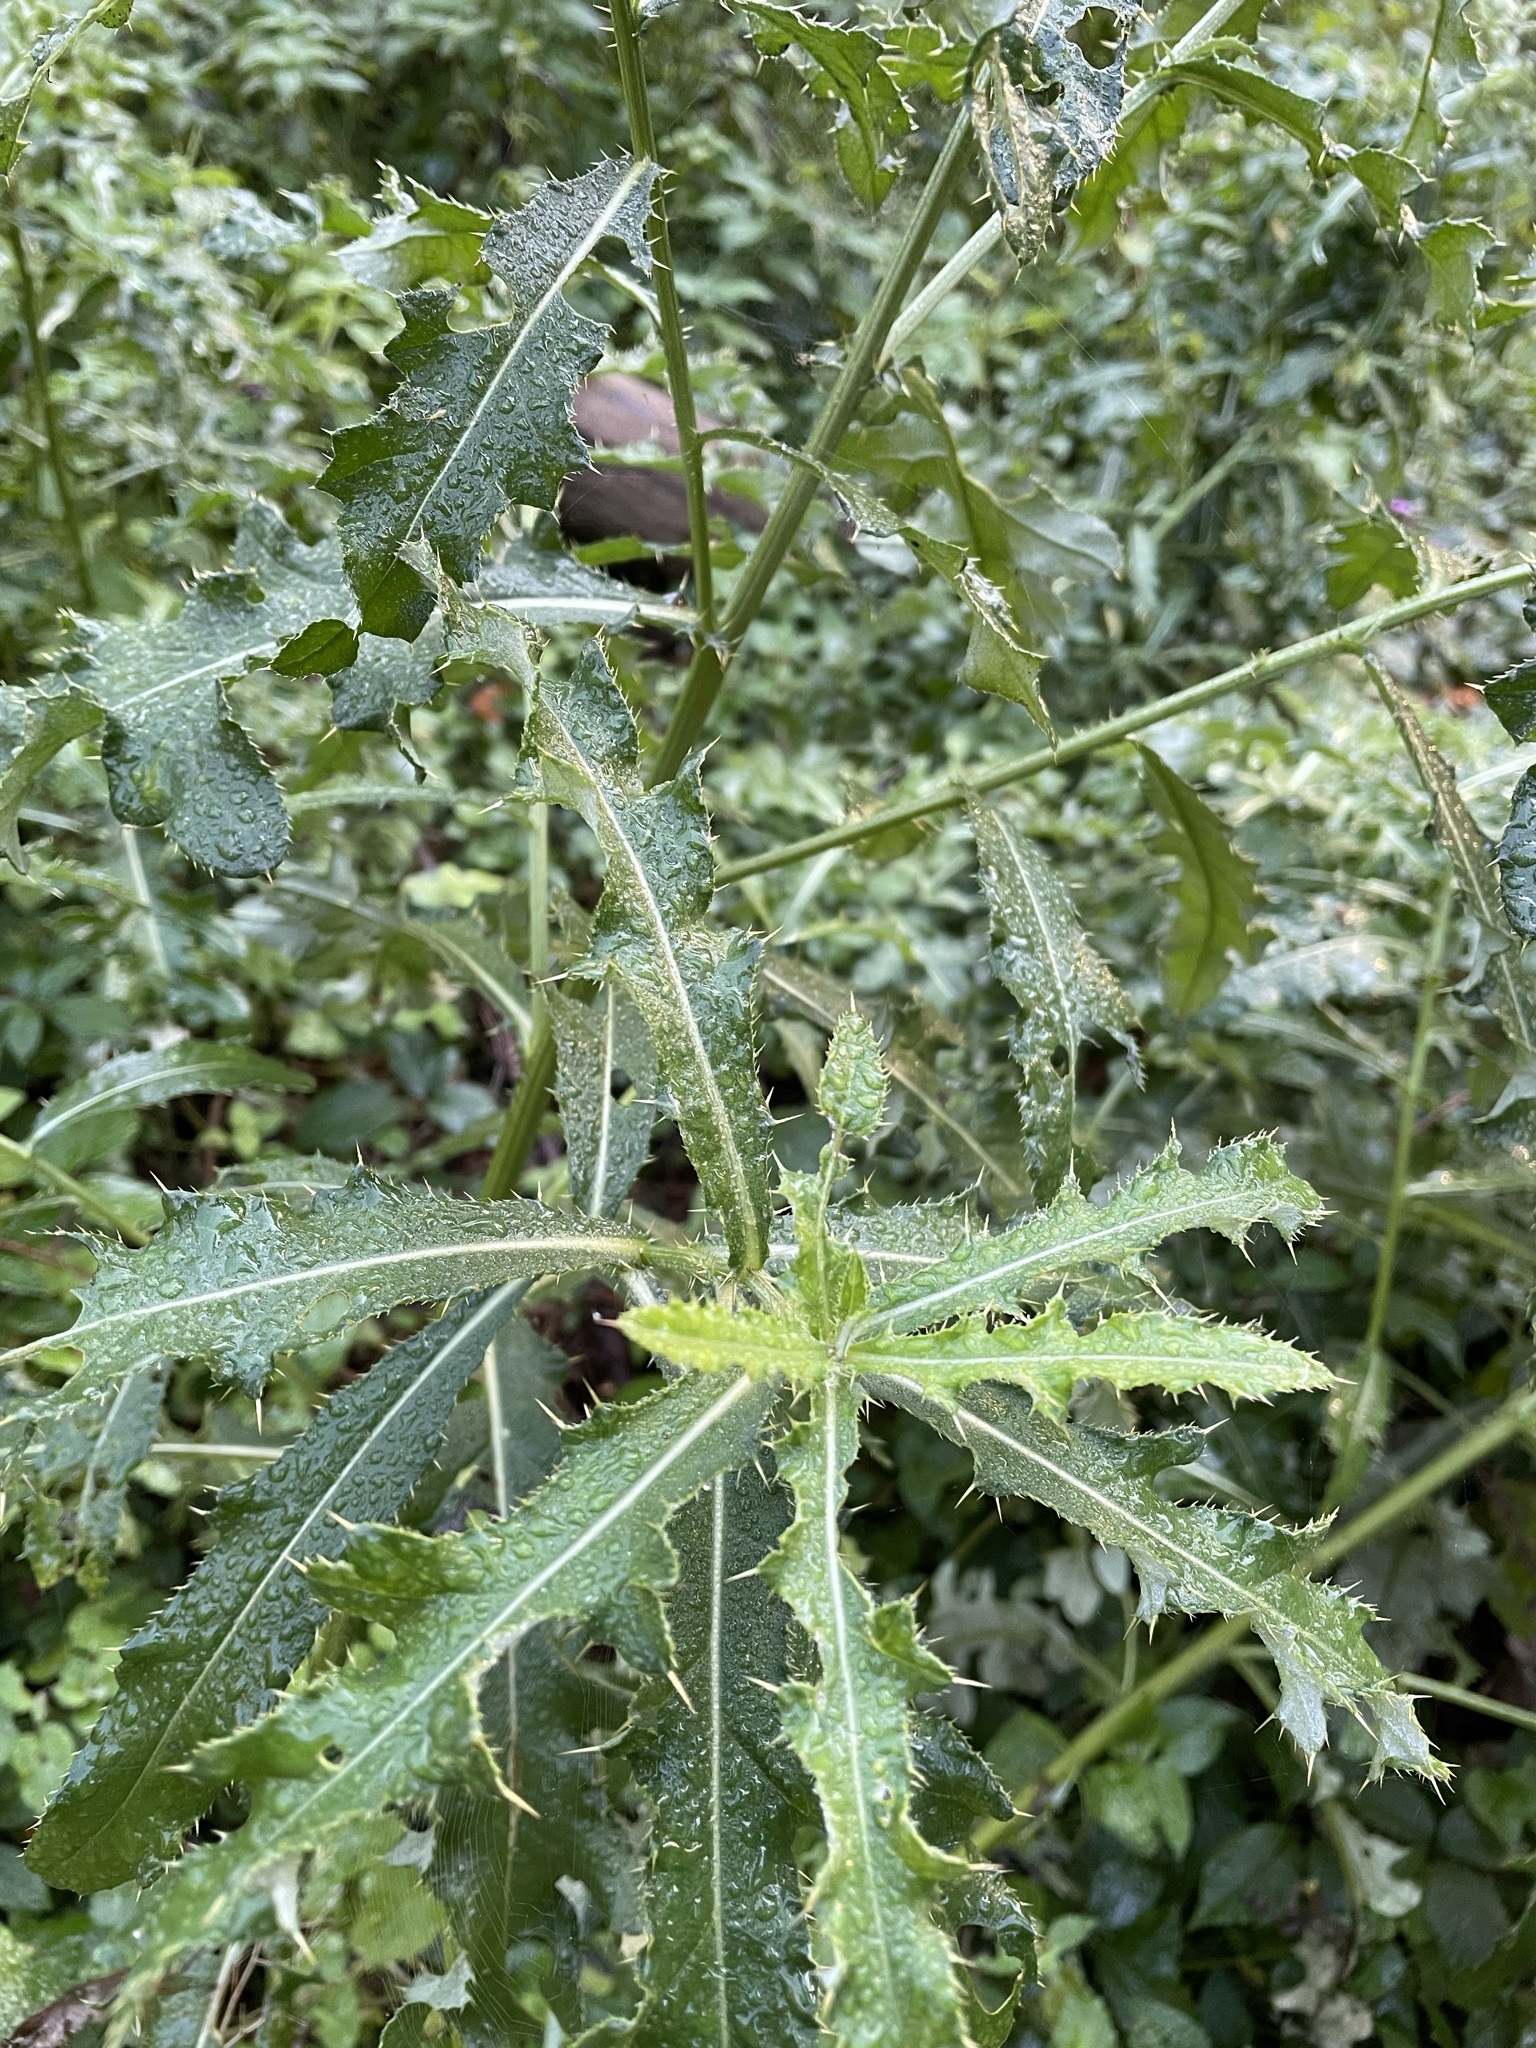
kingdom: Plantae
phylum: Tracheophyta
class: Magnoliopsida
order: Asterales
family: Asteraceae
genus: Cirsium
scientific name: Cirsium arvense
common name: Creeping thistle
